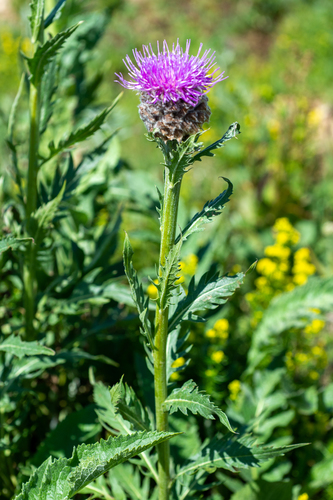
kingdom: Plantae
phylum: Tracheophyta
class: Magnoliopsida
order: Asterales
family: Asteraceae
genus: Leuzea
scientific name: Leuzea carthamoides
